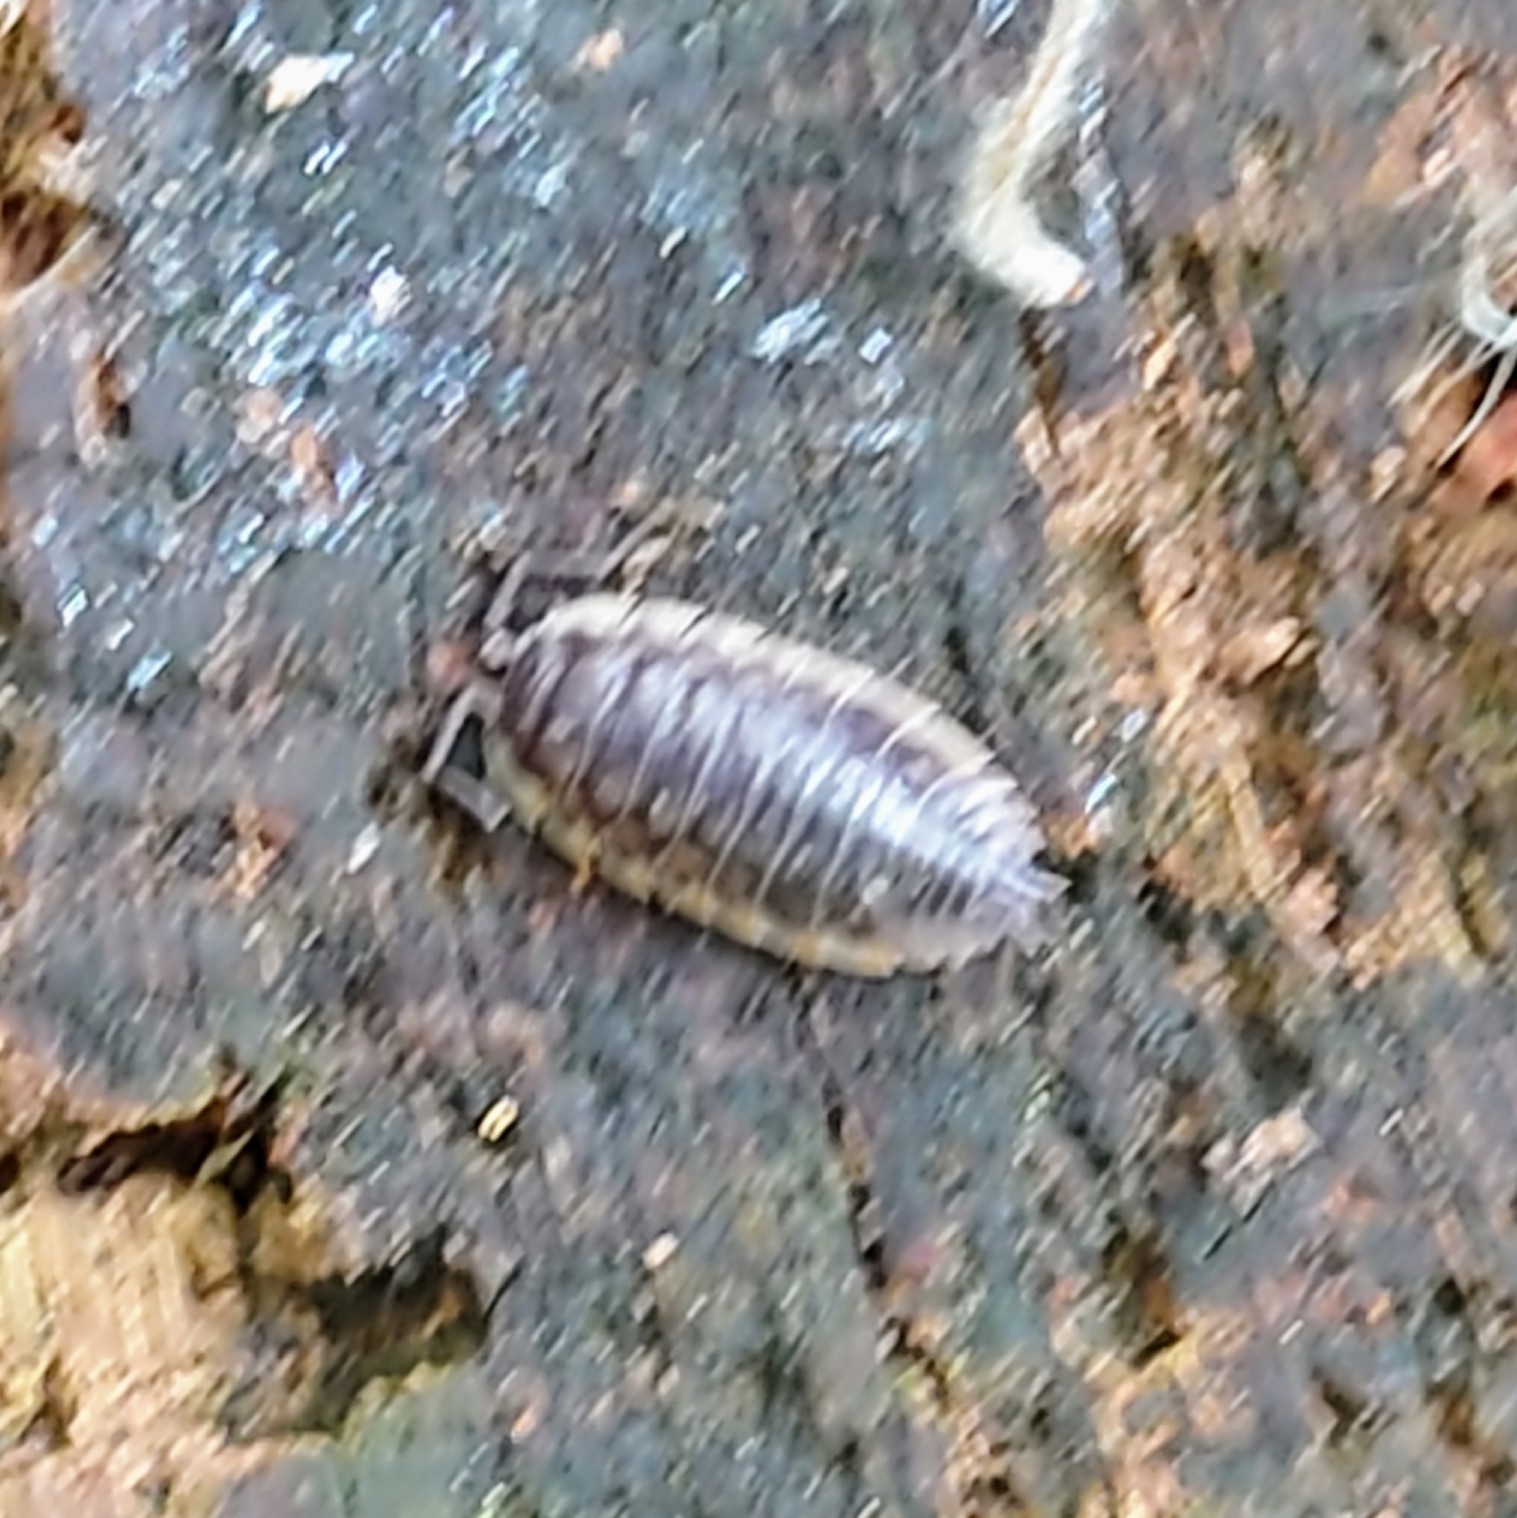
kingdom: Animalia
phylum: Arthropoda
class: Malacostraca
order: Isopoda
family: Oniscidae
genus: Oniscus
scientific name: Oniscus asellus
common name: Common shiny woodlouse
